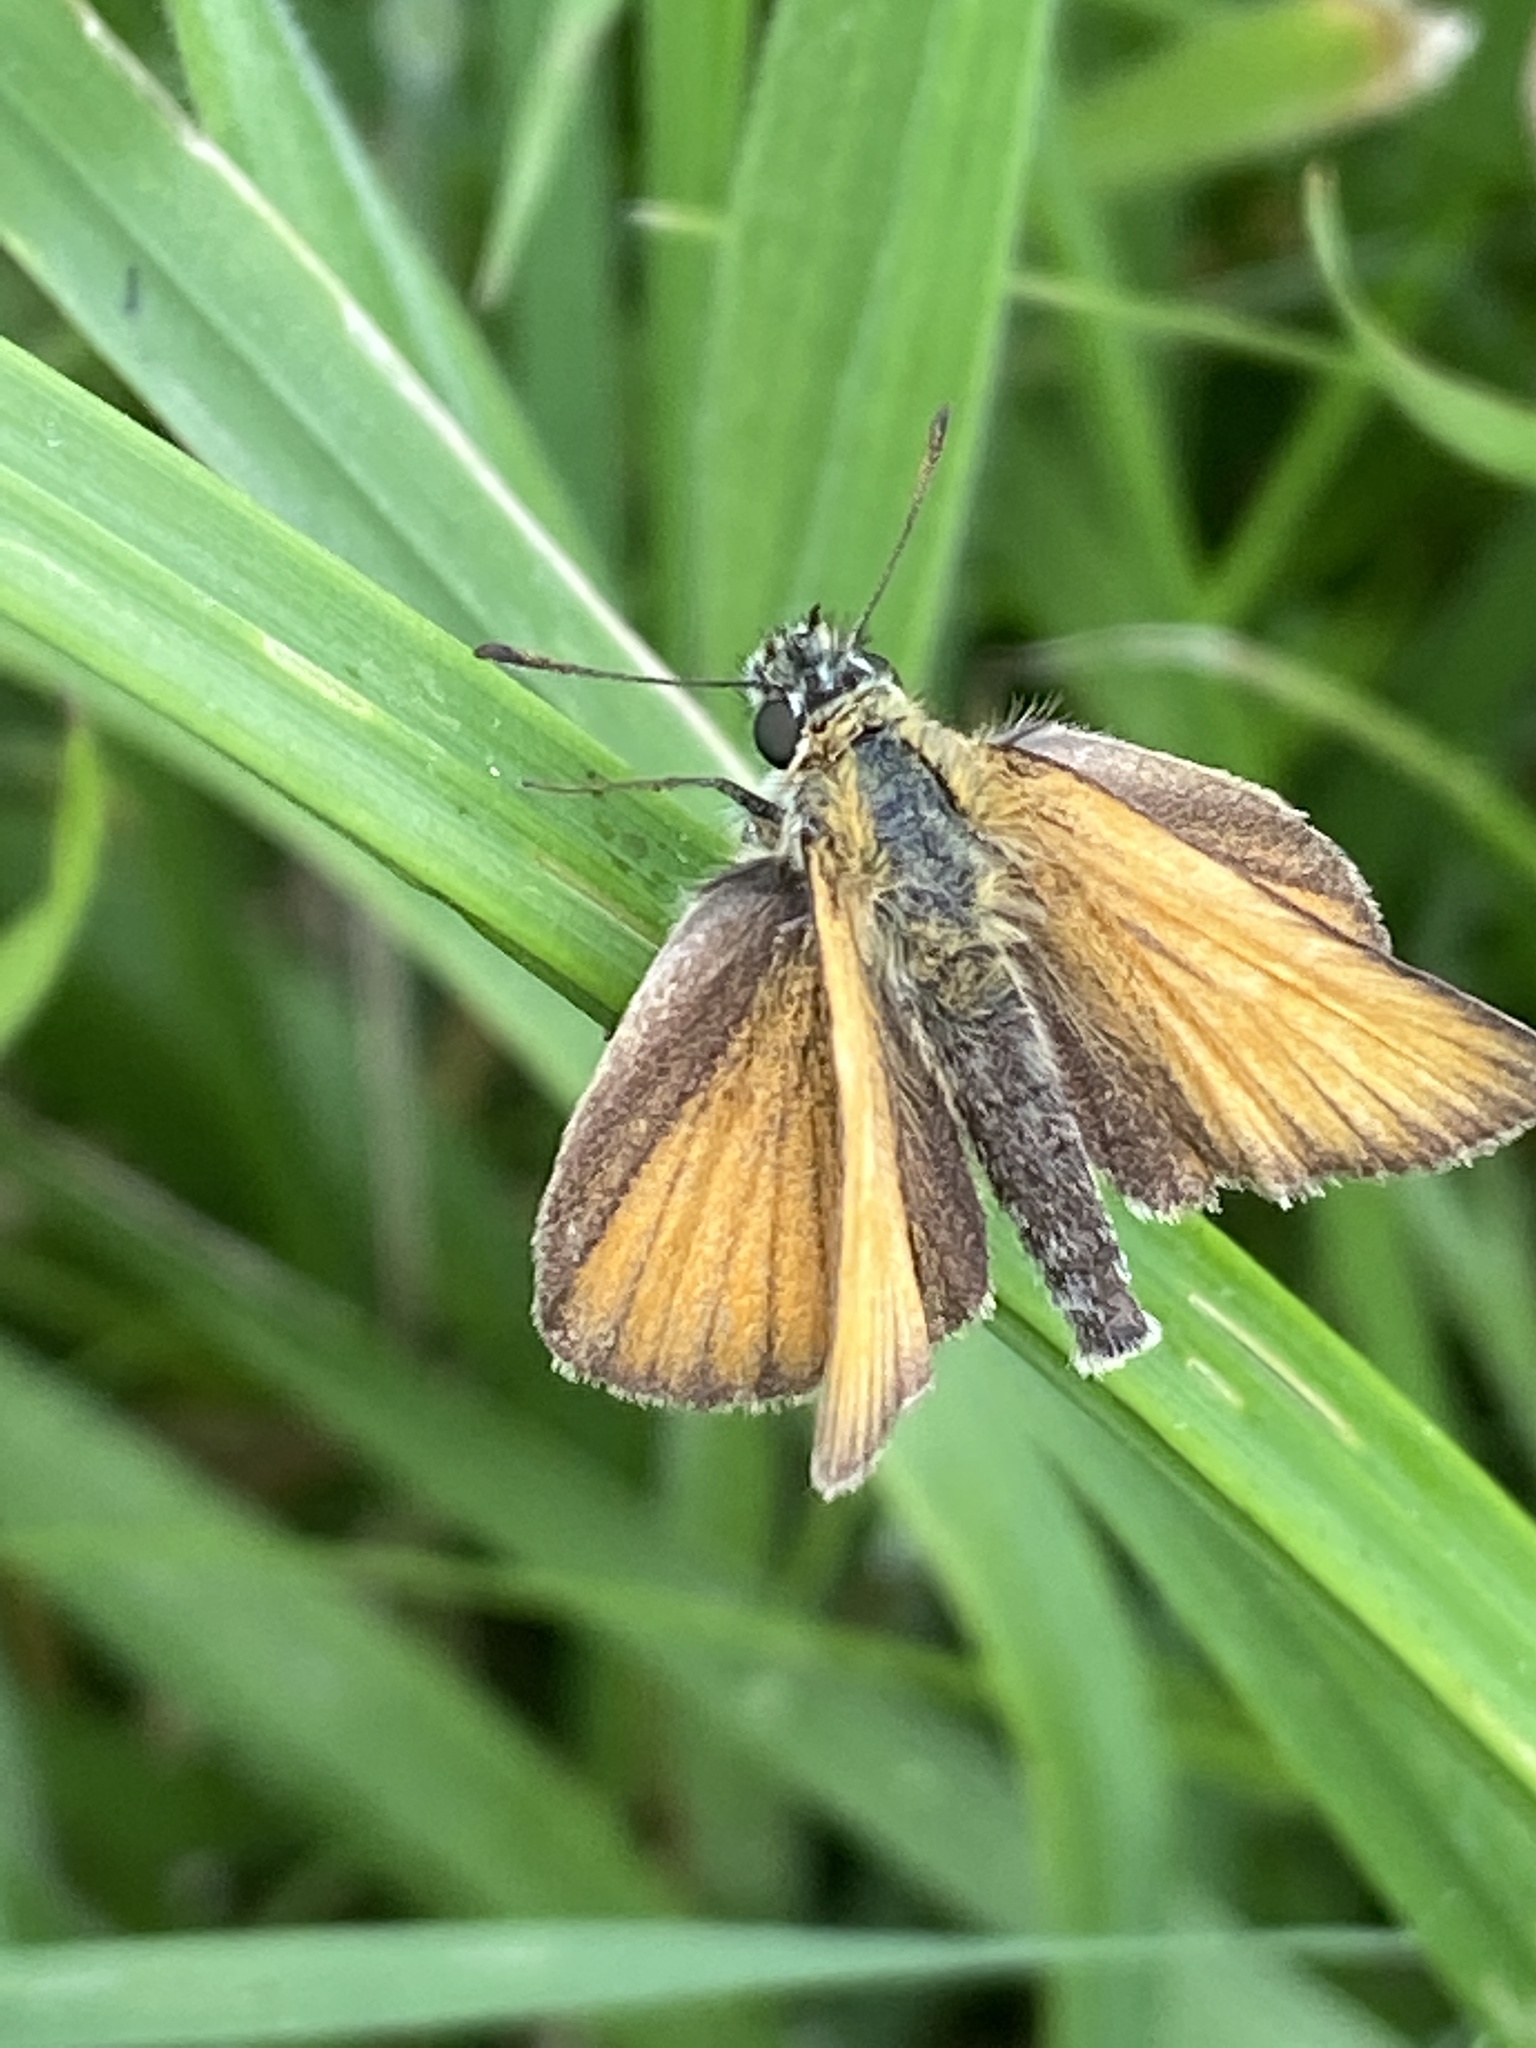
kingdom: Animalia
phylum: Arthropoda
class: Insecta
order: Lepidoptera
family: Hesperiidae
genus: Thymelicus
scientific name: Thymelicus lineola
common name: Essex skipper
